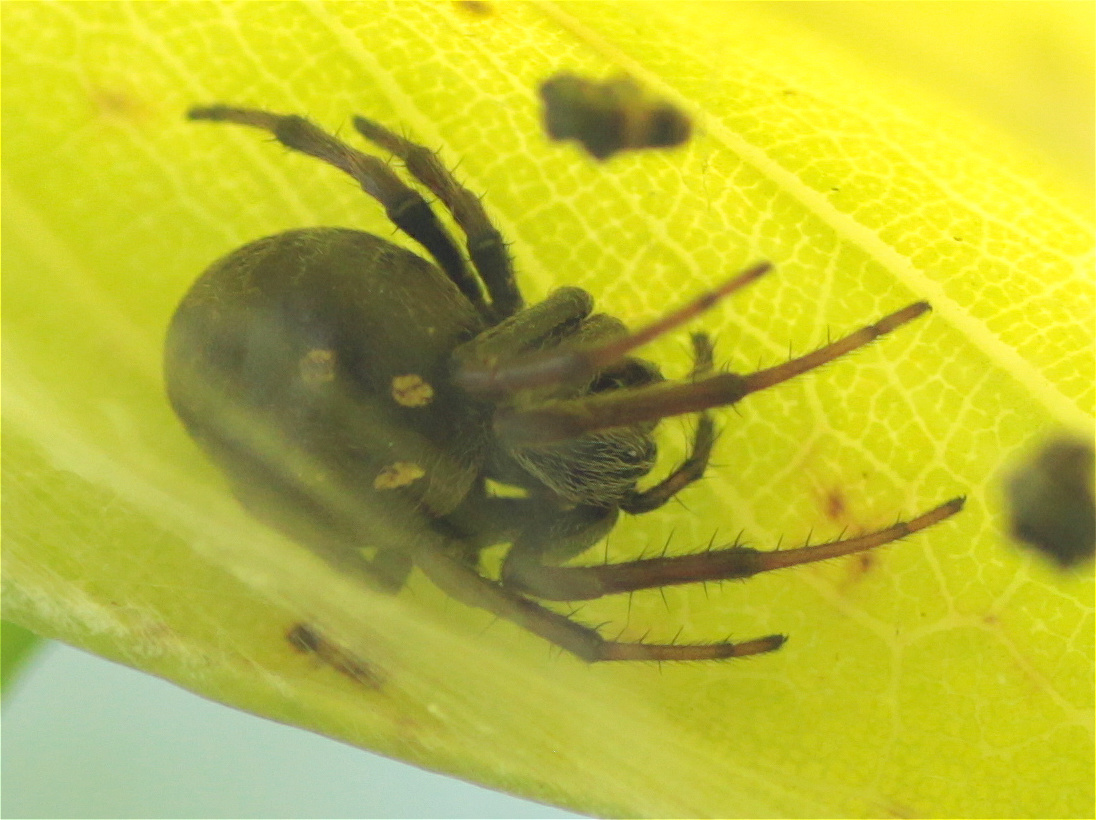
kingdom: Animalia
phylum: Arthropoda
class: Arachnida
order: Araneae
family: Araneidae
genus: Araneus
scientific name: Araneus granadensis
